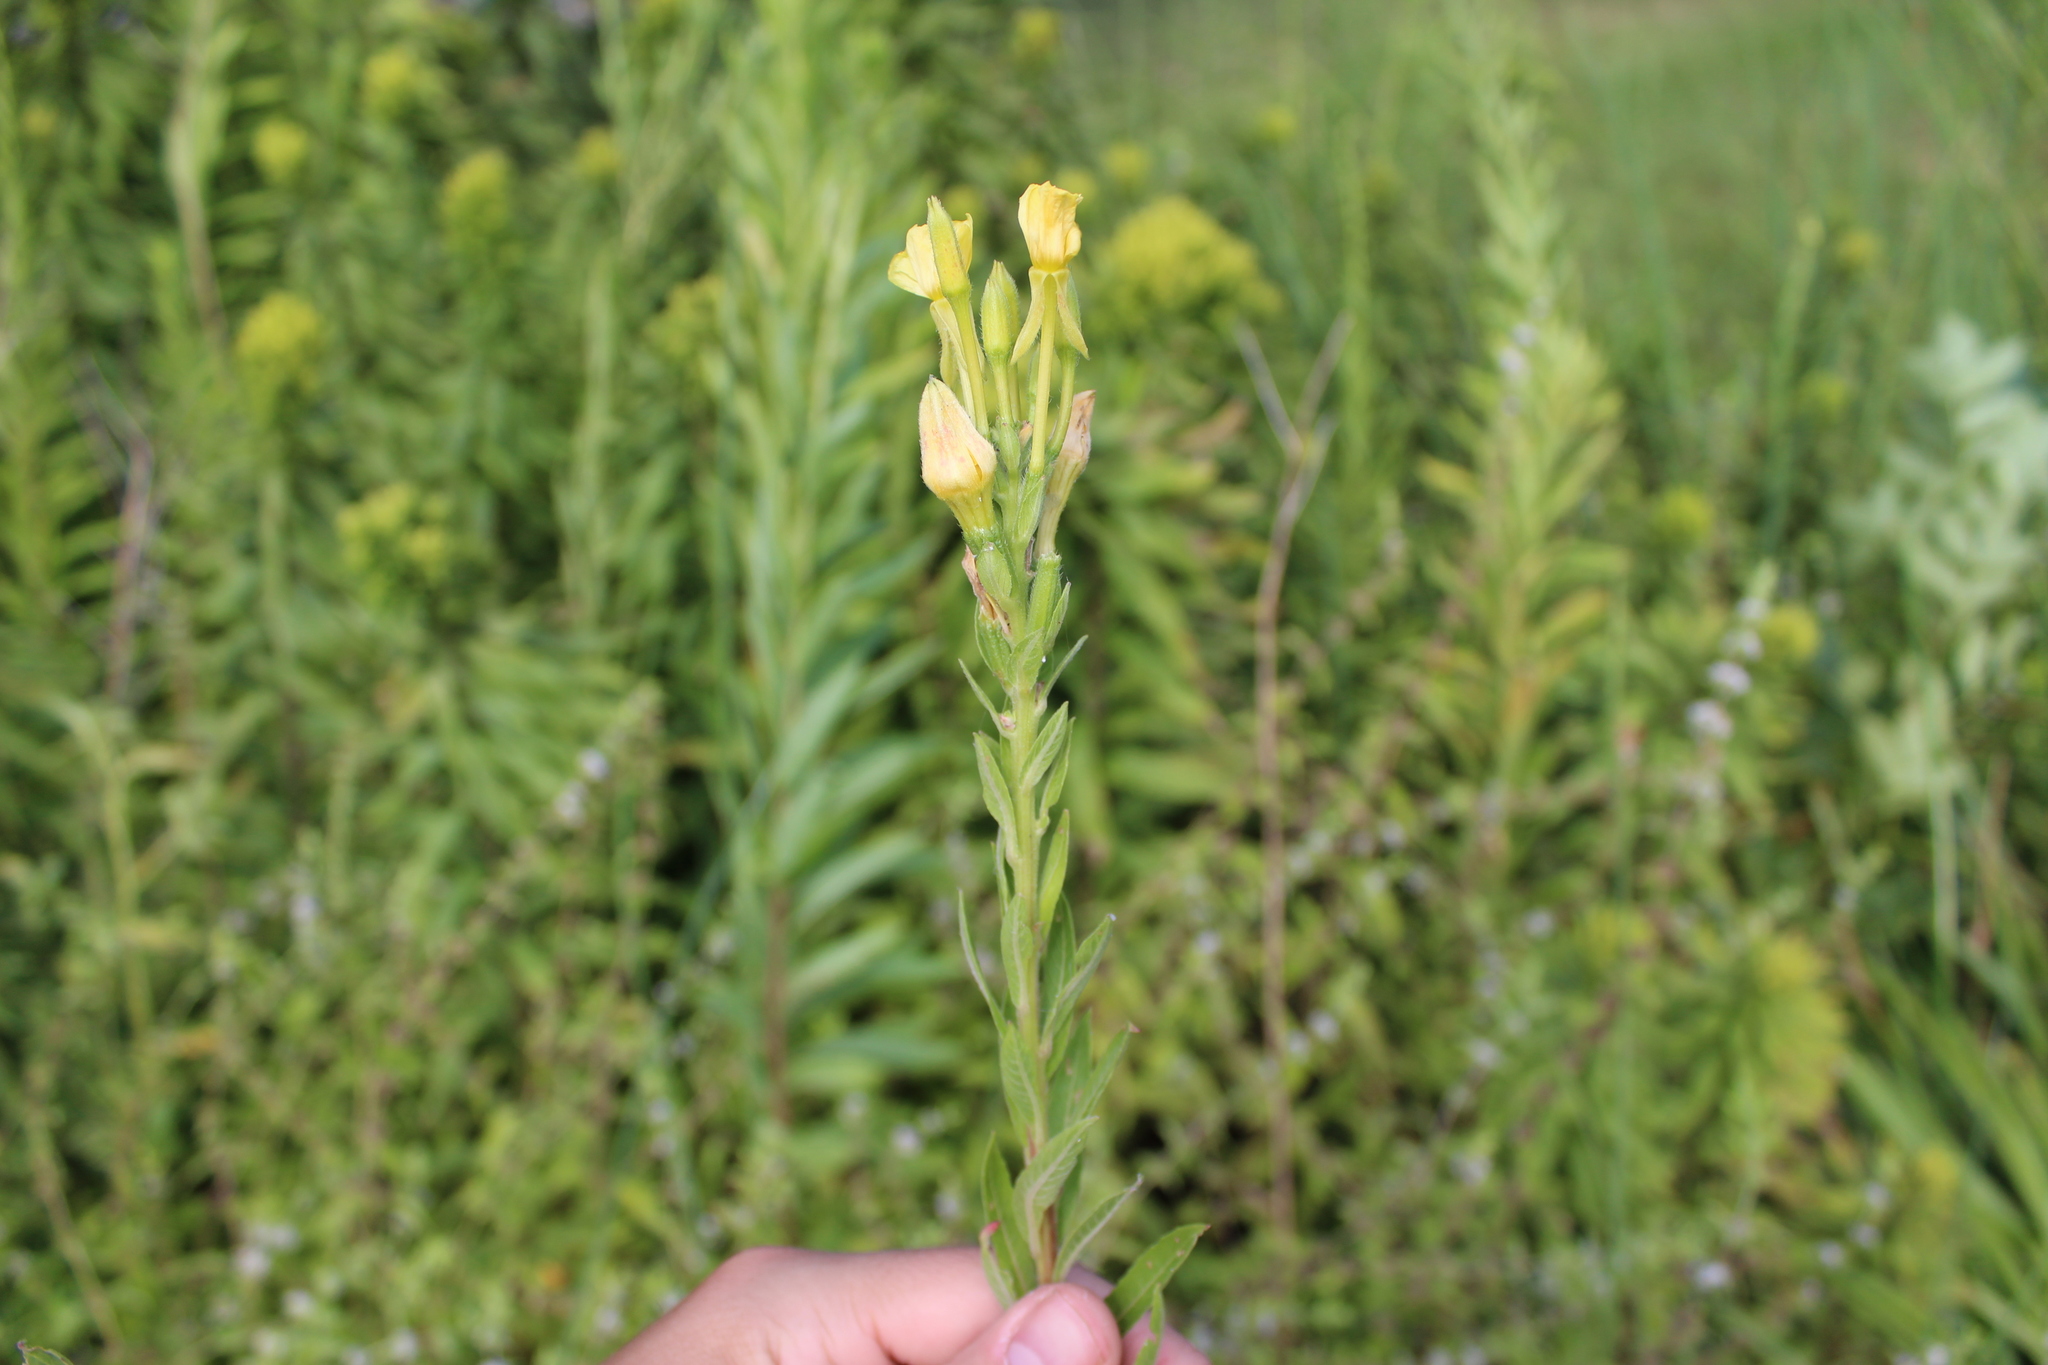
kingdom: Plantae
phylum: Tracheophyta
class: Magnoliopsida
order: Myrtales
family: Onagraceae
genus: Oenothera
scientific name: Oenothera biennis
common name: Common evening-primrose
